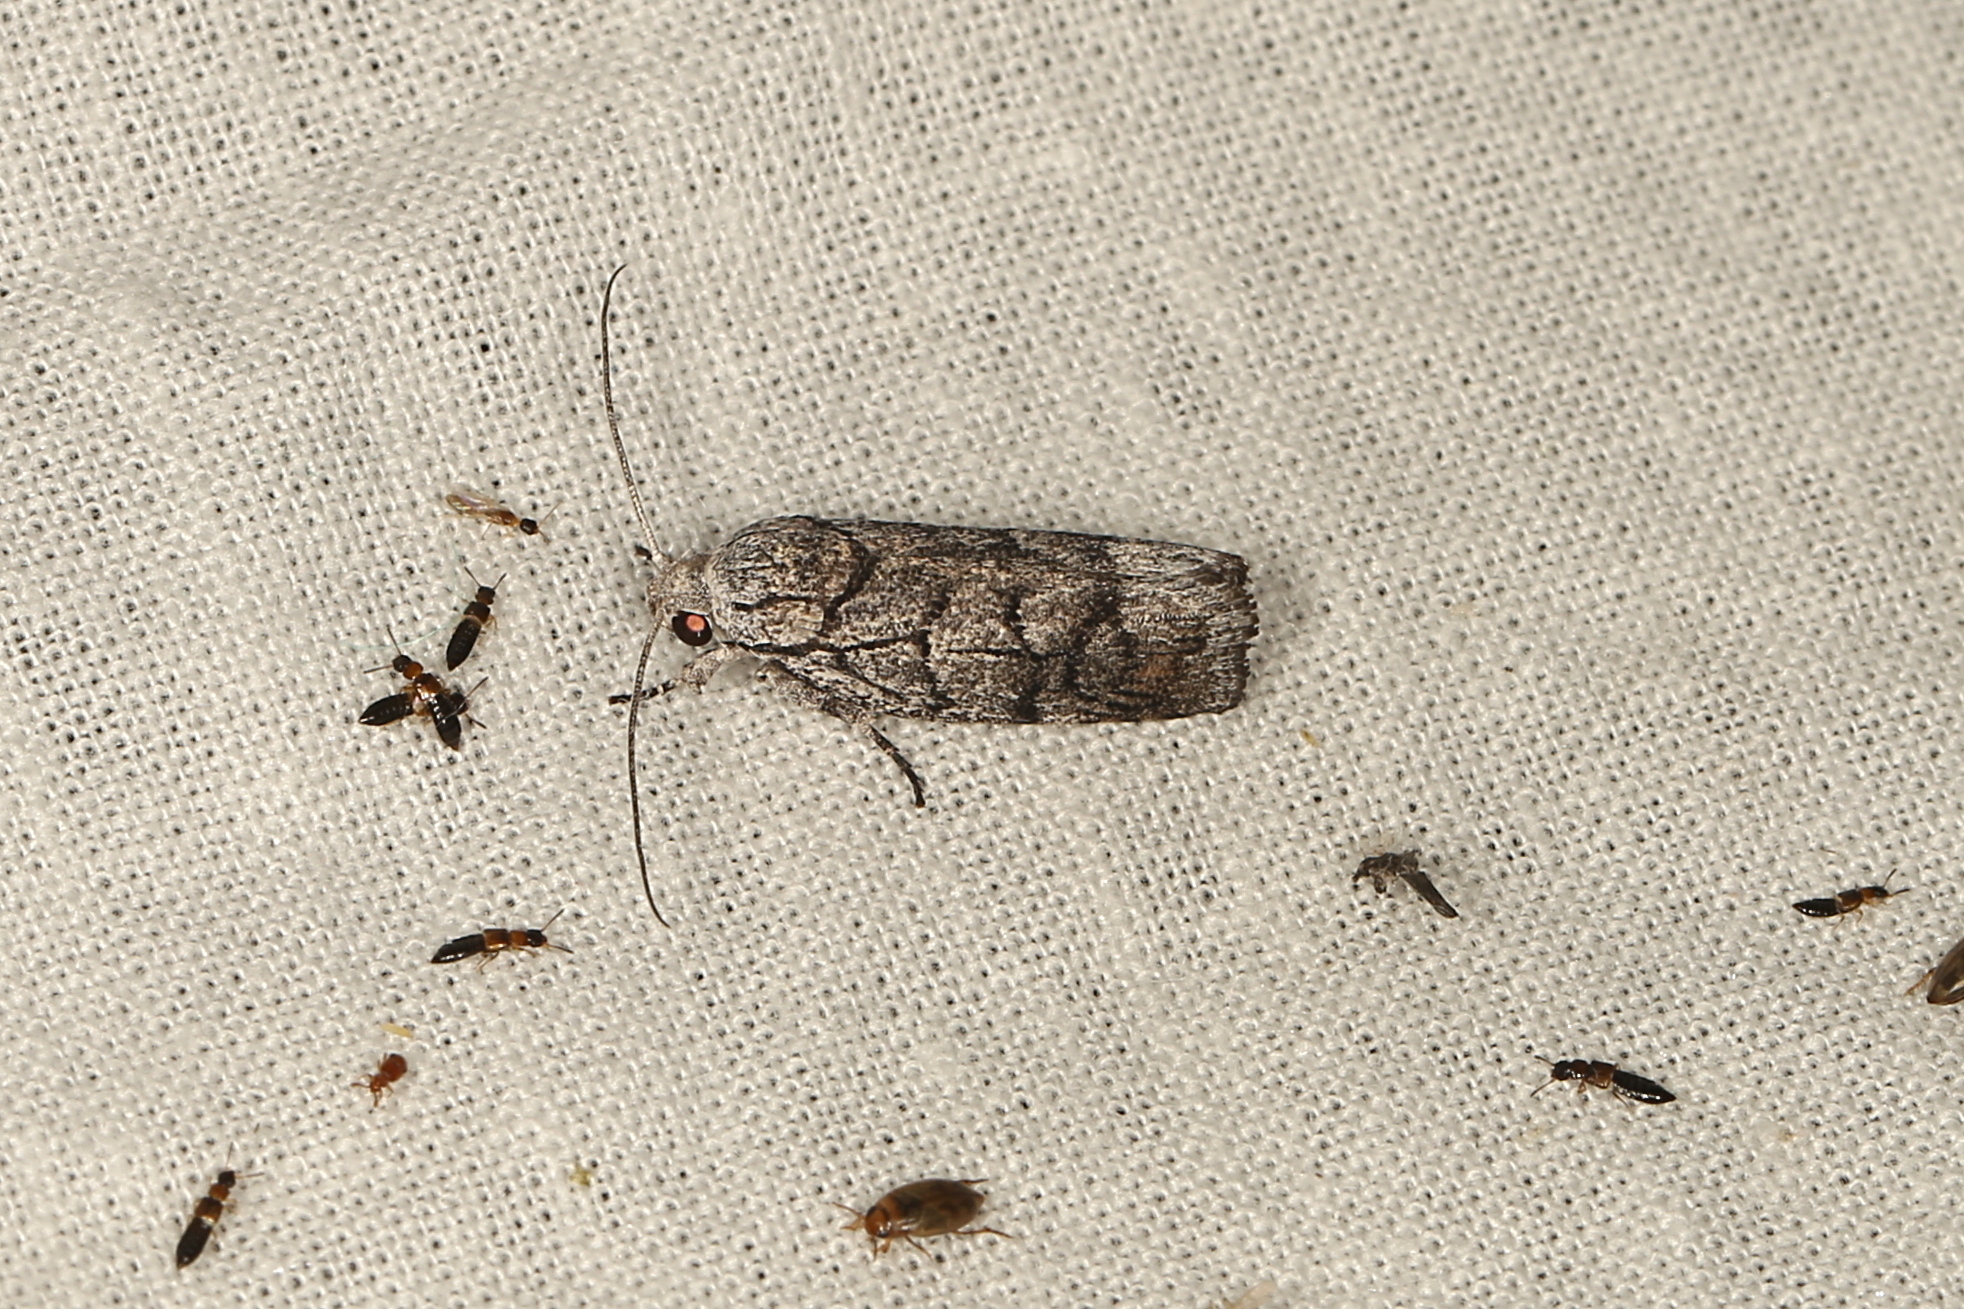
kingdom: Animalia
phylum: Arthropoda
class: Insecta
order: Lepidoptera
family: Xyloryctidae
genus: Lichenaula
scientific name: Lichenaula onychodes
